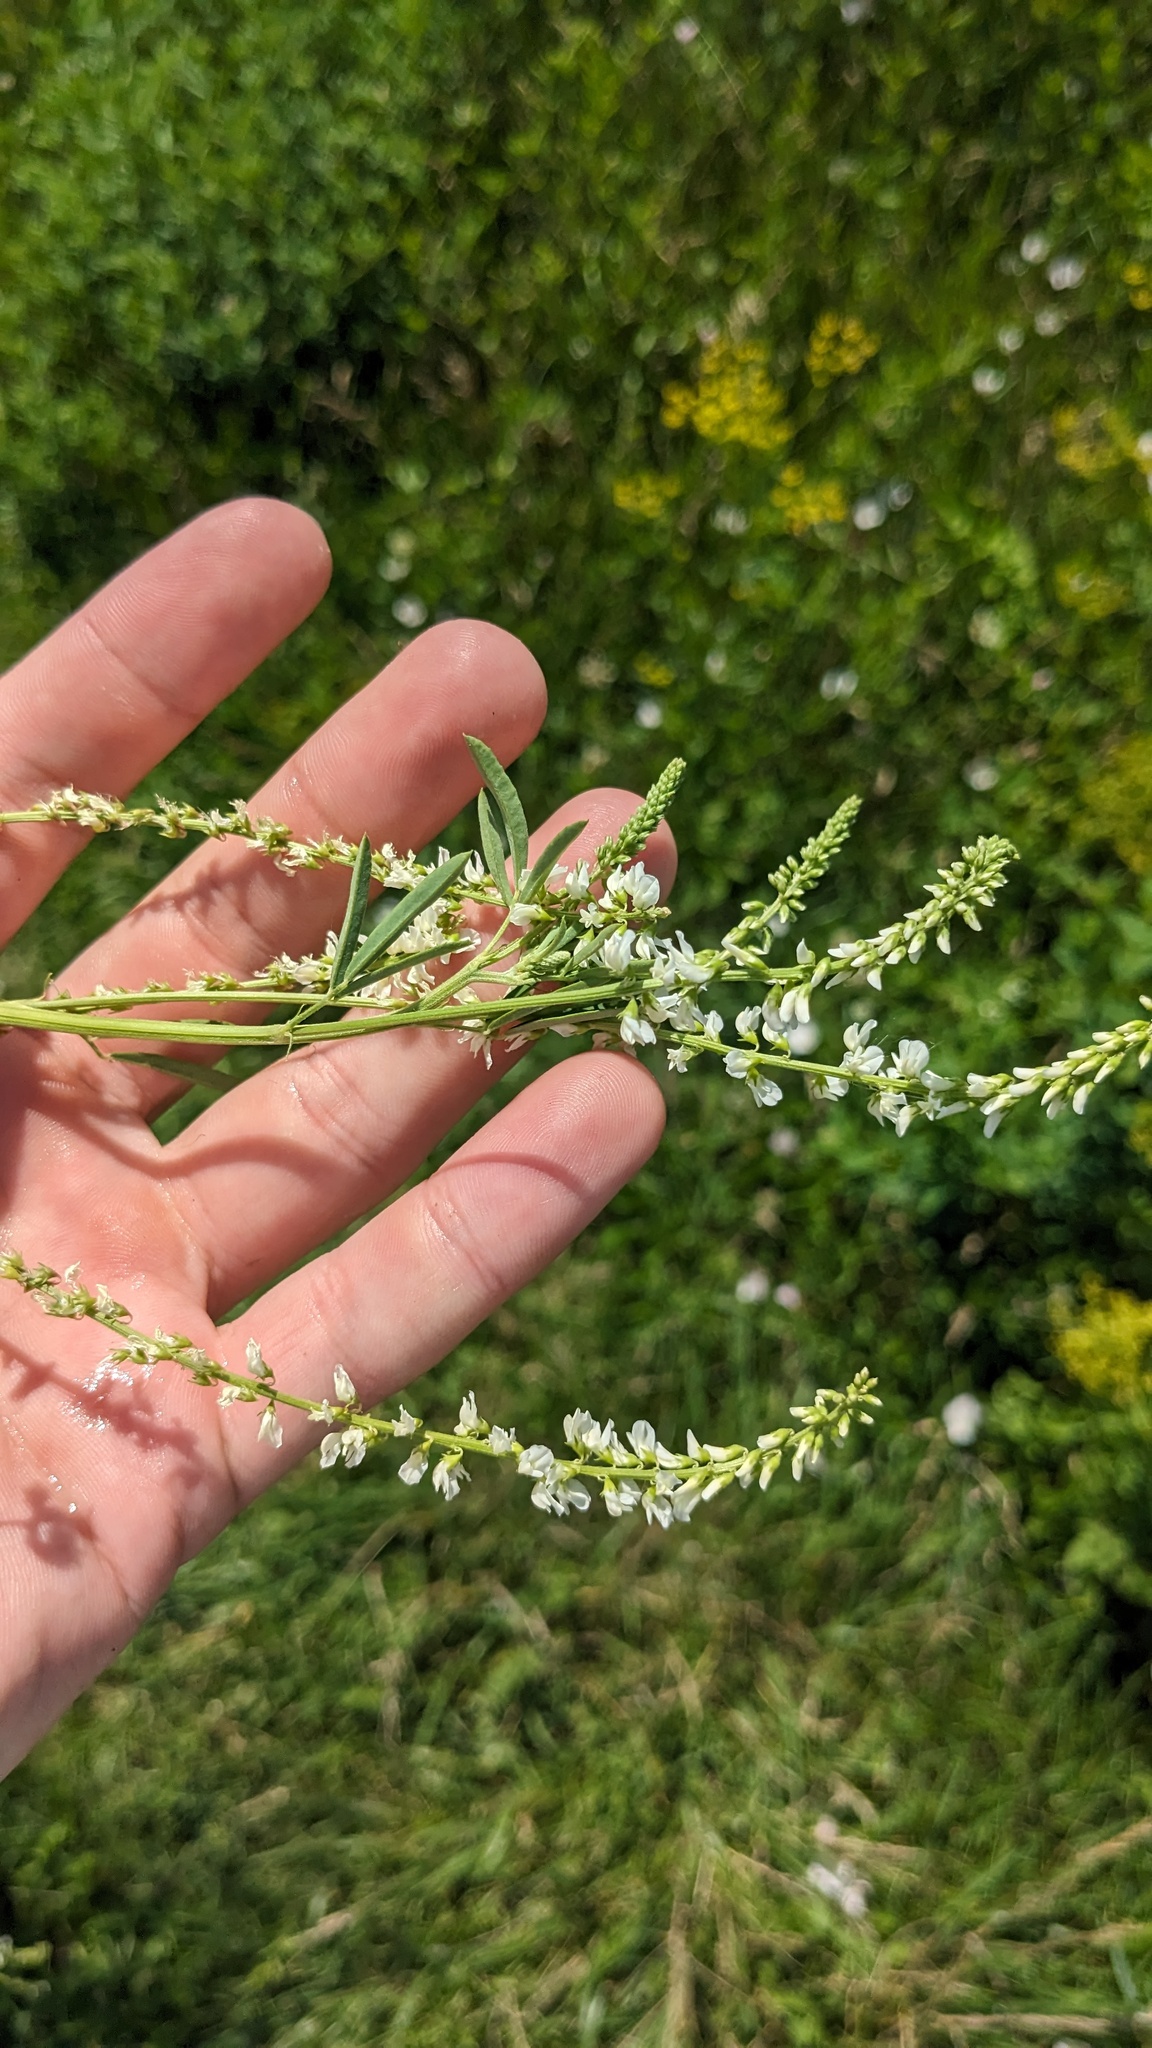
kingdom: Plantae
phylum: Tracheophyta
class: Magnoliopsida
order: Fabales
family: Fabaceae
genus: Melilotus
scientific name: Melilotus albus
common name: White melilot
